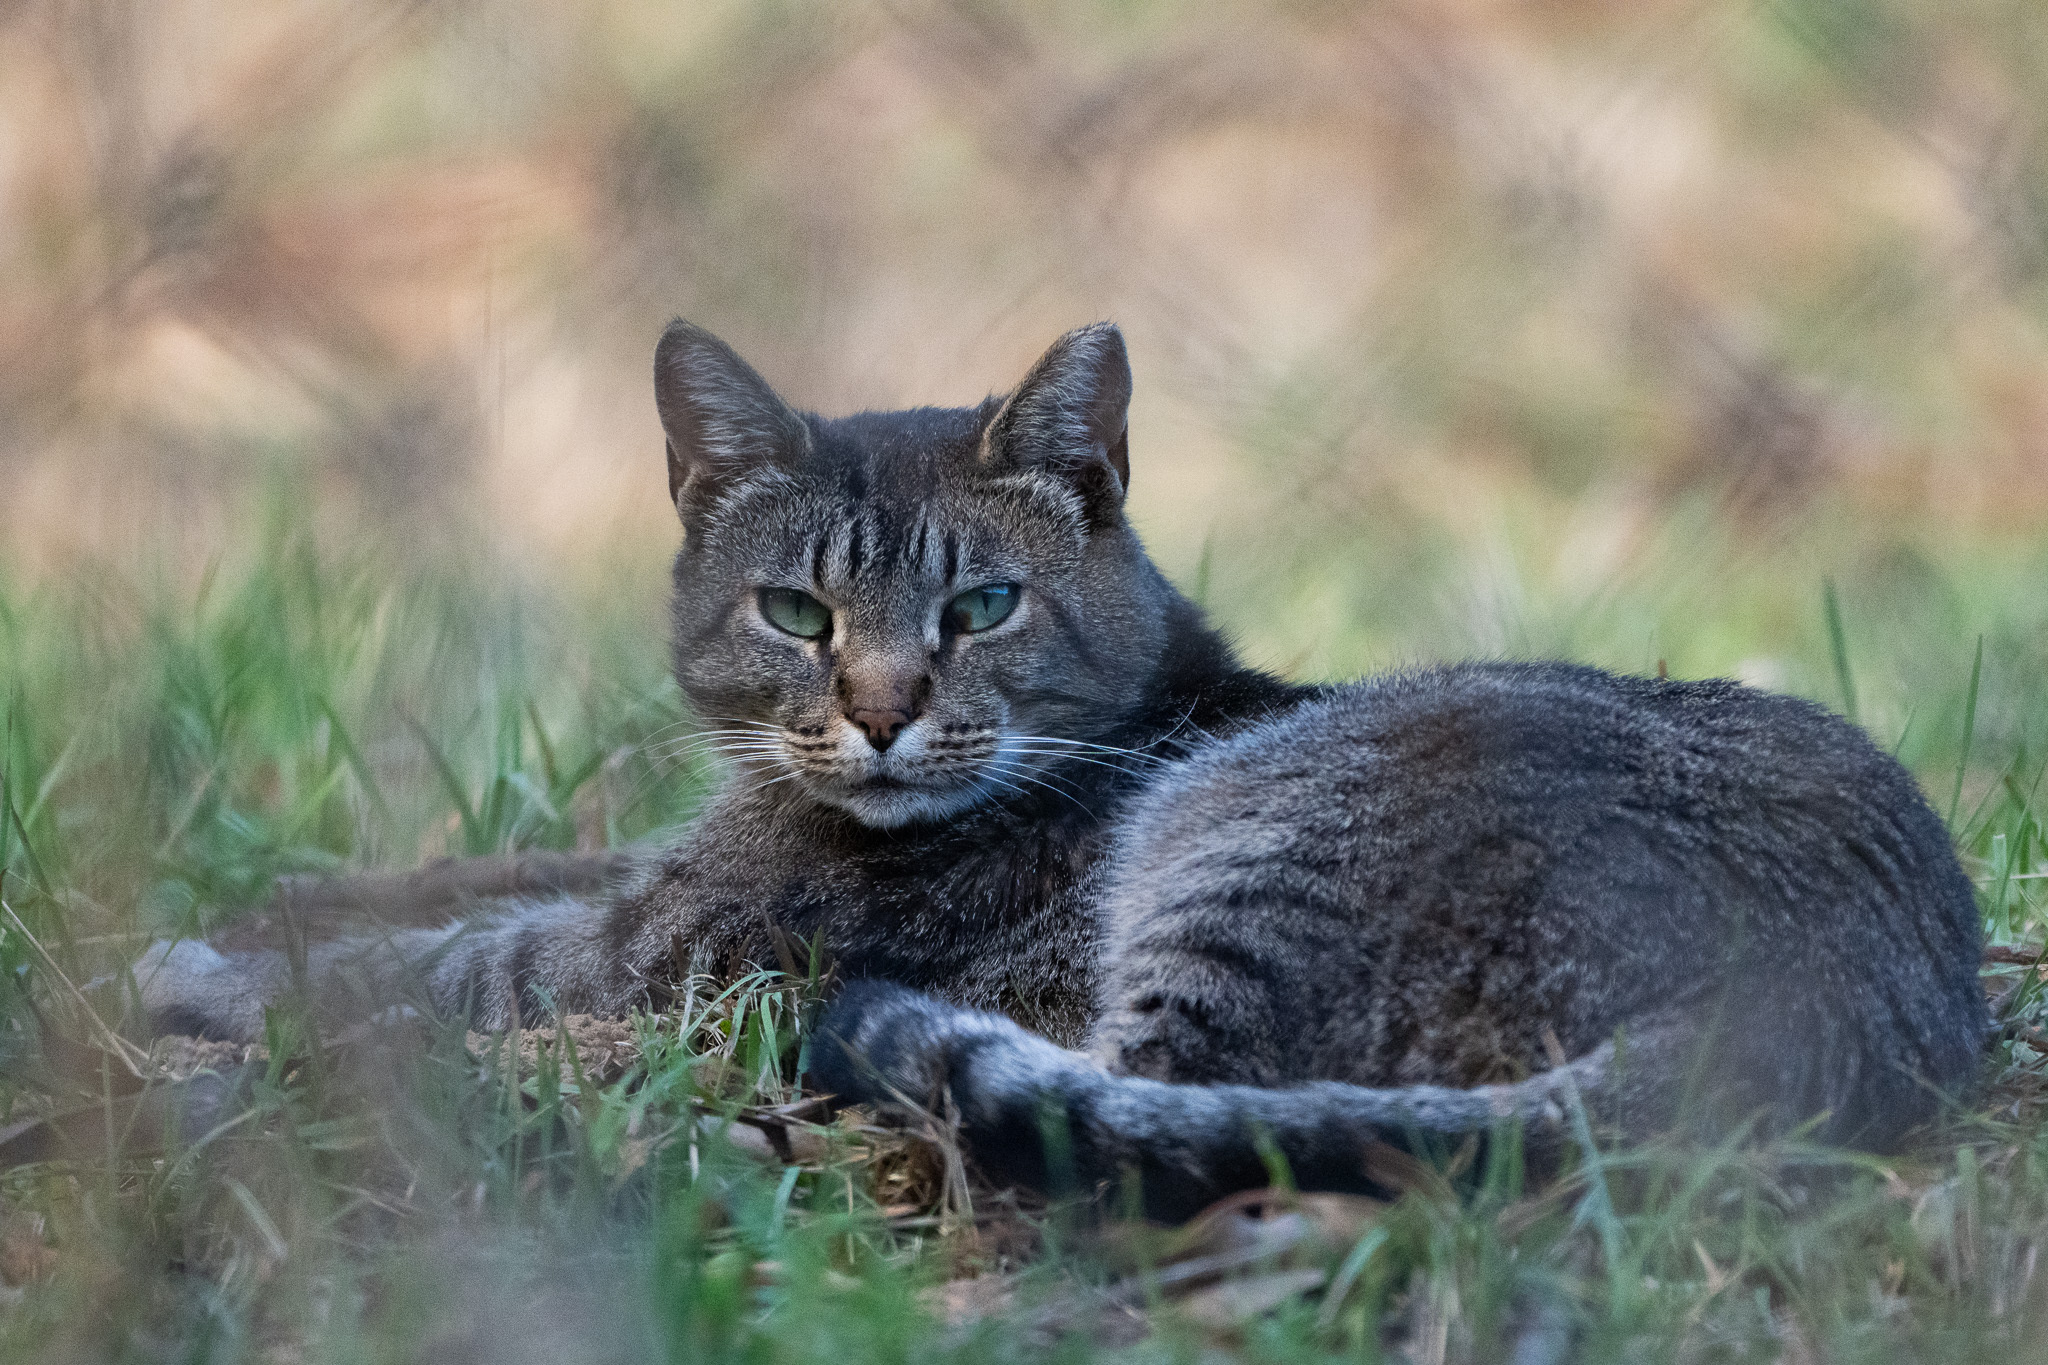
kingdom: Animalia
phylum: Chordata
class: Mammalia
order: Carnivora
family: Felidae
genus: Felis
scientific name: Felis catus
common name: Domestic cat
